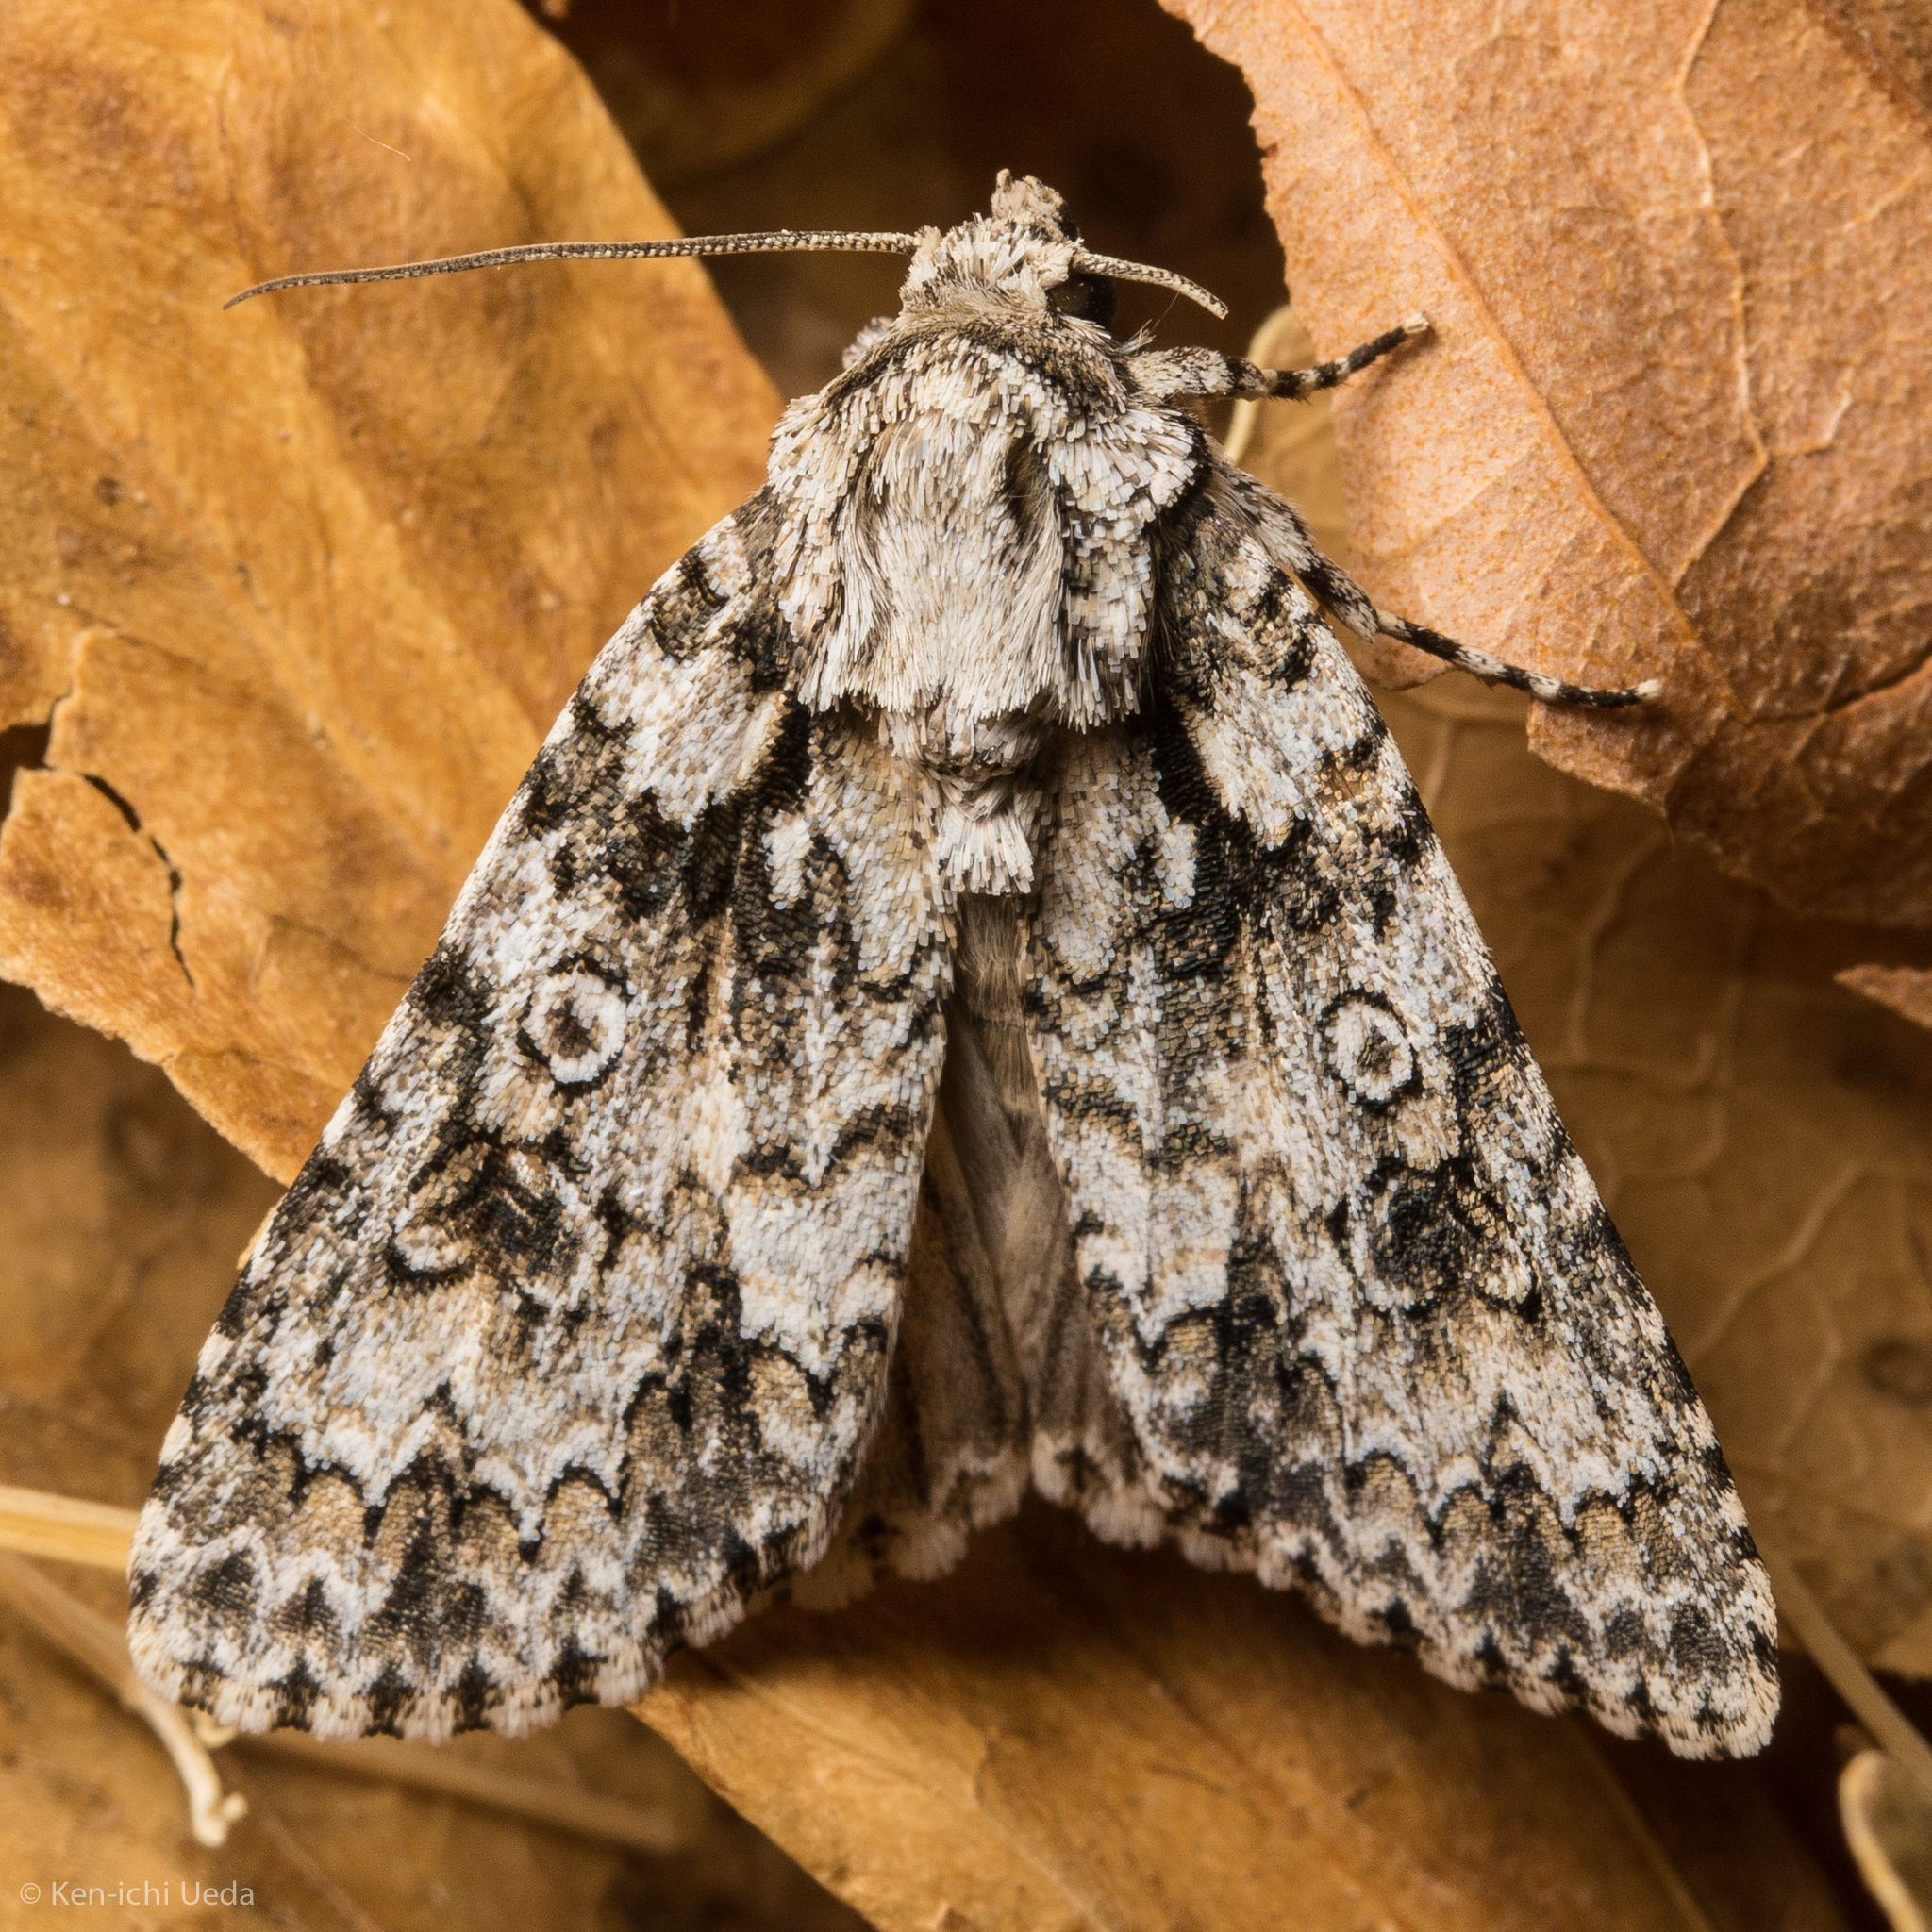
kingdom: Animalia
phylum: Arthropoda
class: Insecta
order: Lepidoptera
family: Noctuidae
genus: Acronicta
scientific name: Acronicta marmorata
